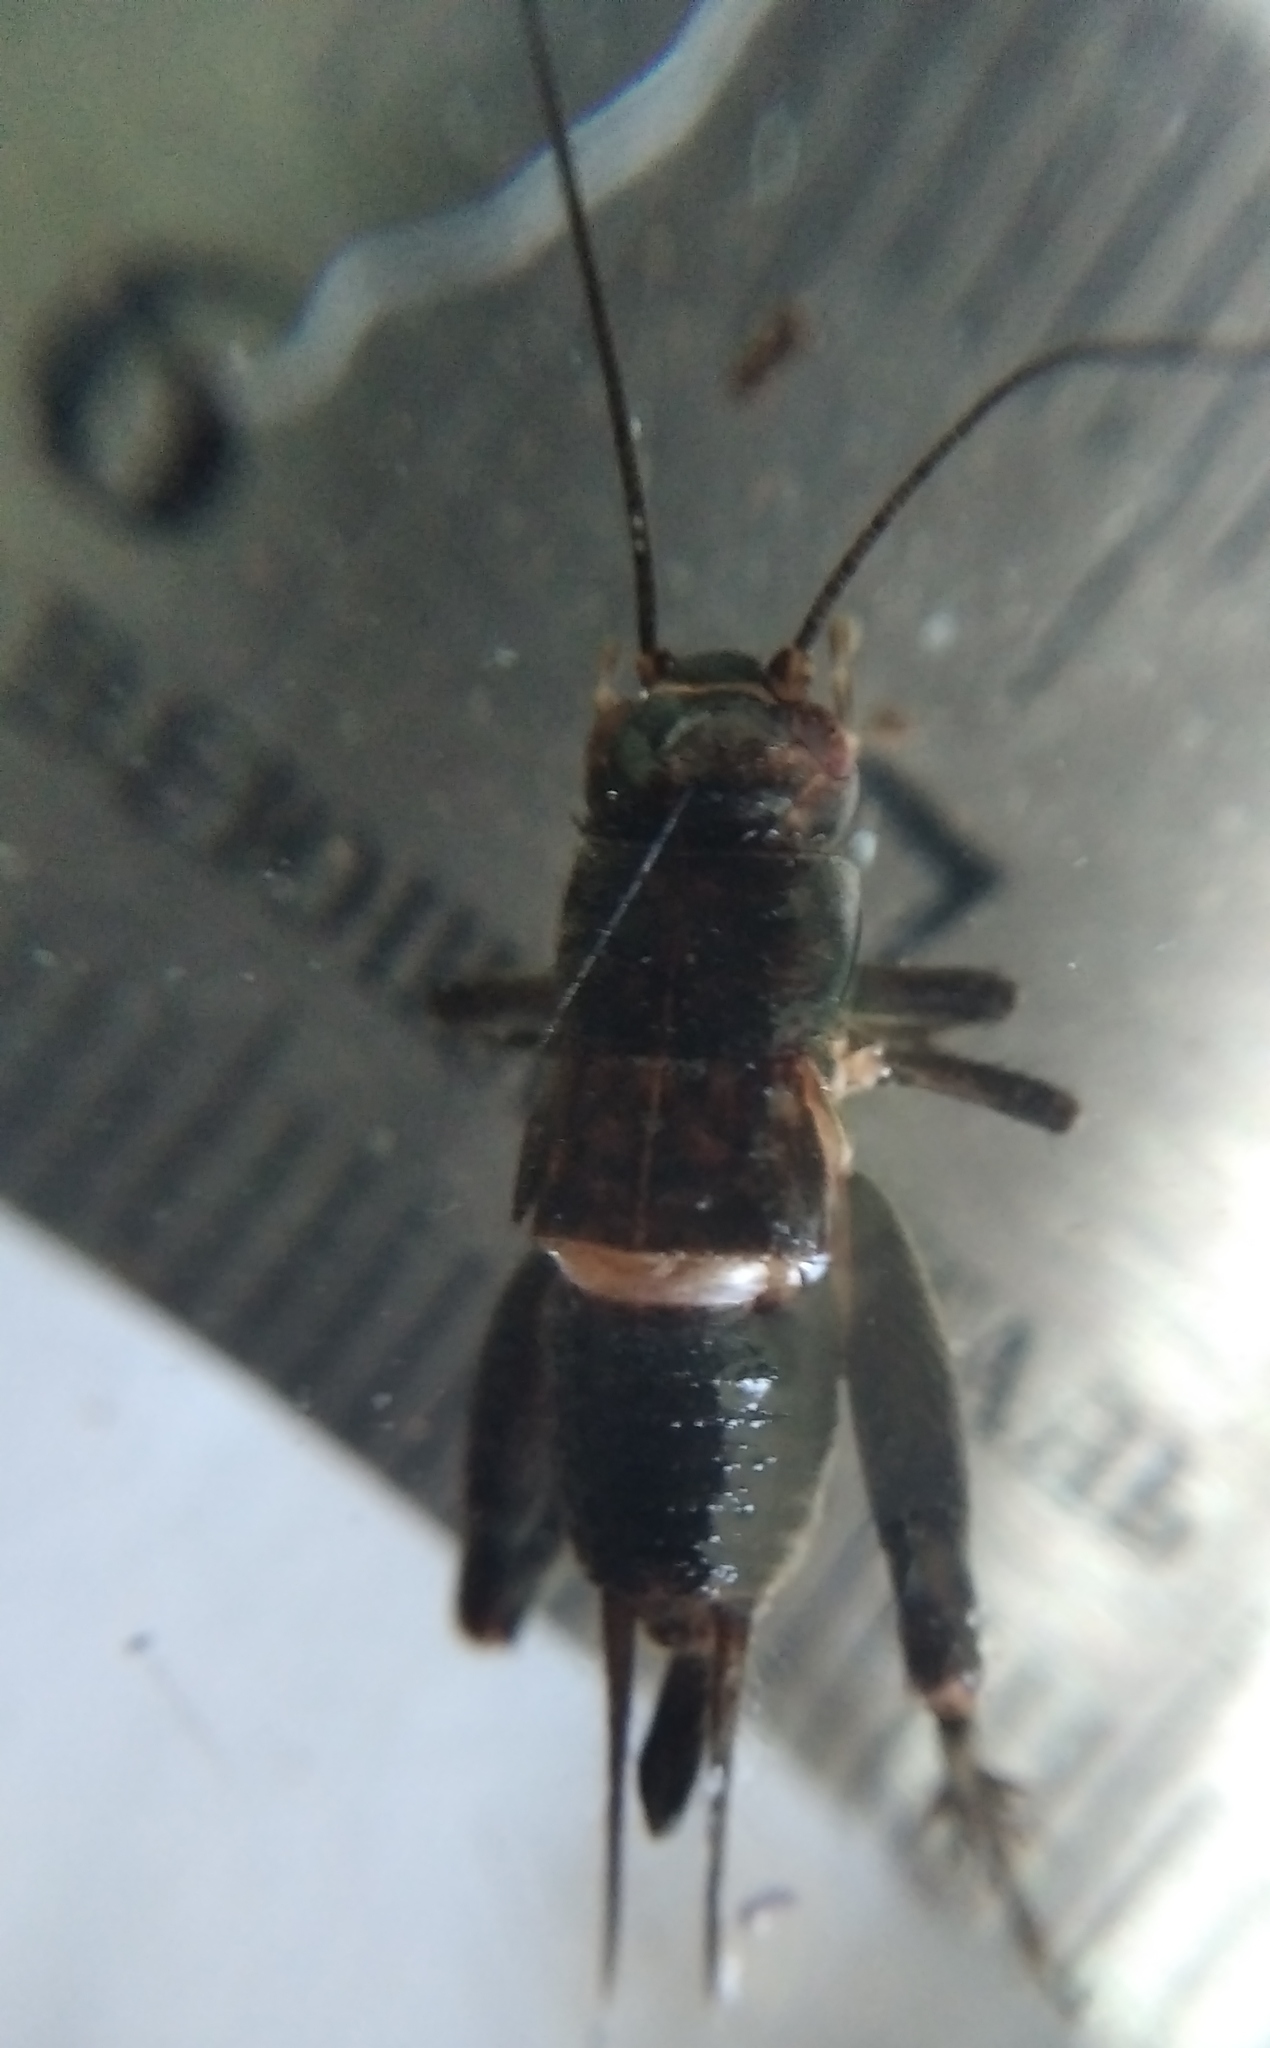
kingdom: Animalia
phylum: Arthropoda
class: Insecta
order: Orthoptera
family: Gryllidae
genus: Modicogryllus
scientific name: Modicogryllus frontalis
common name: Eastern cricket
